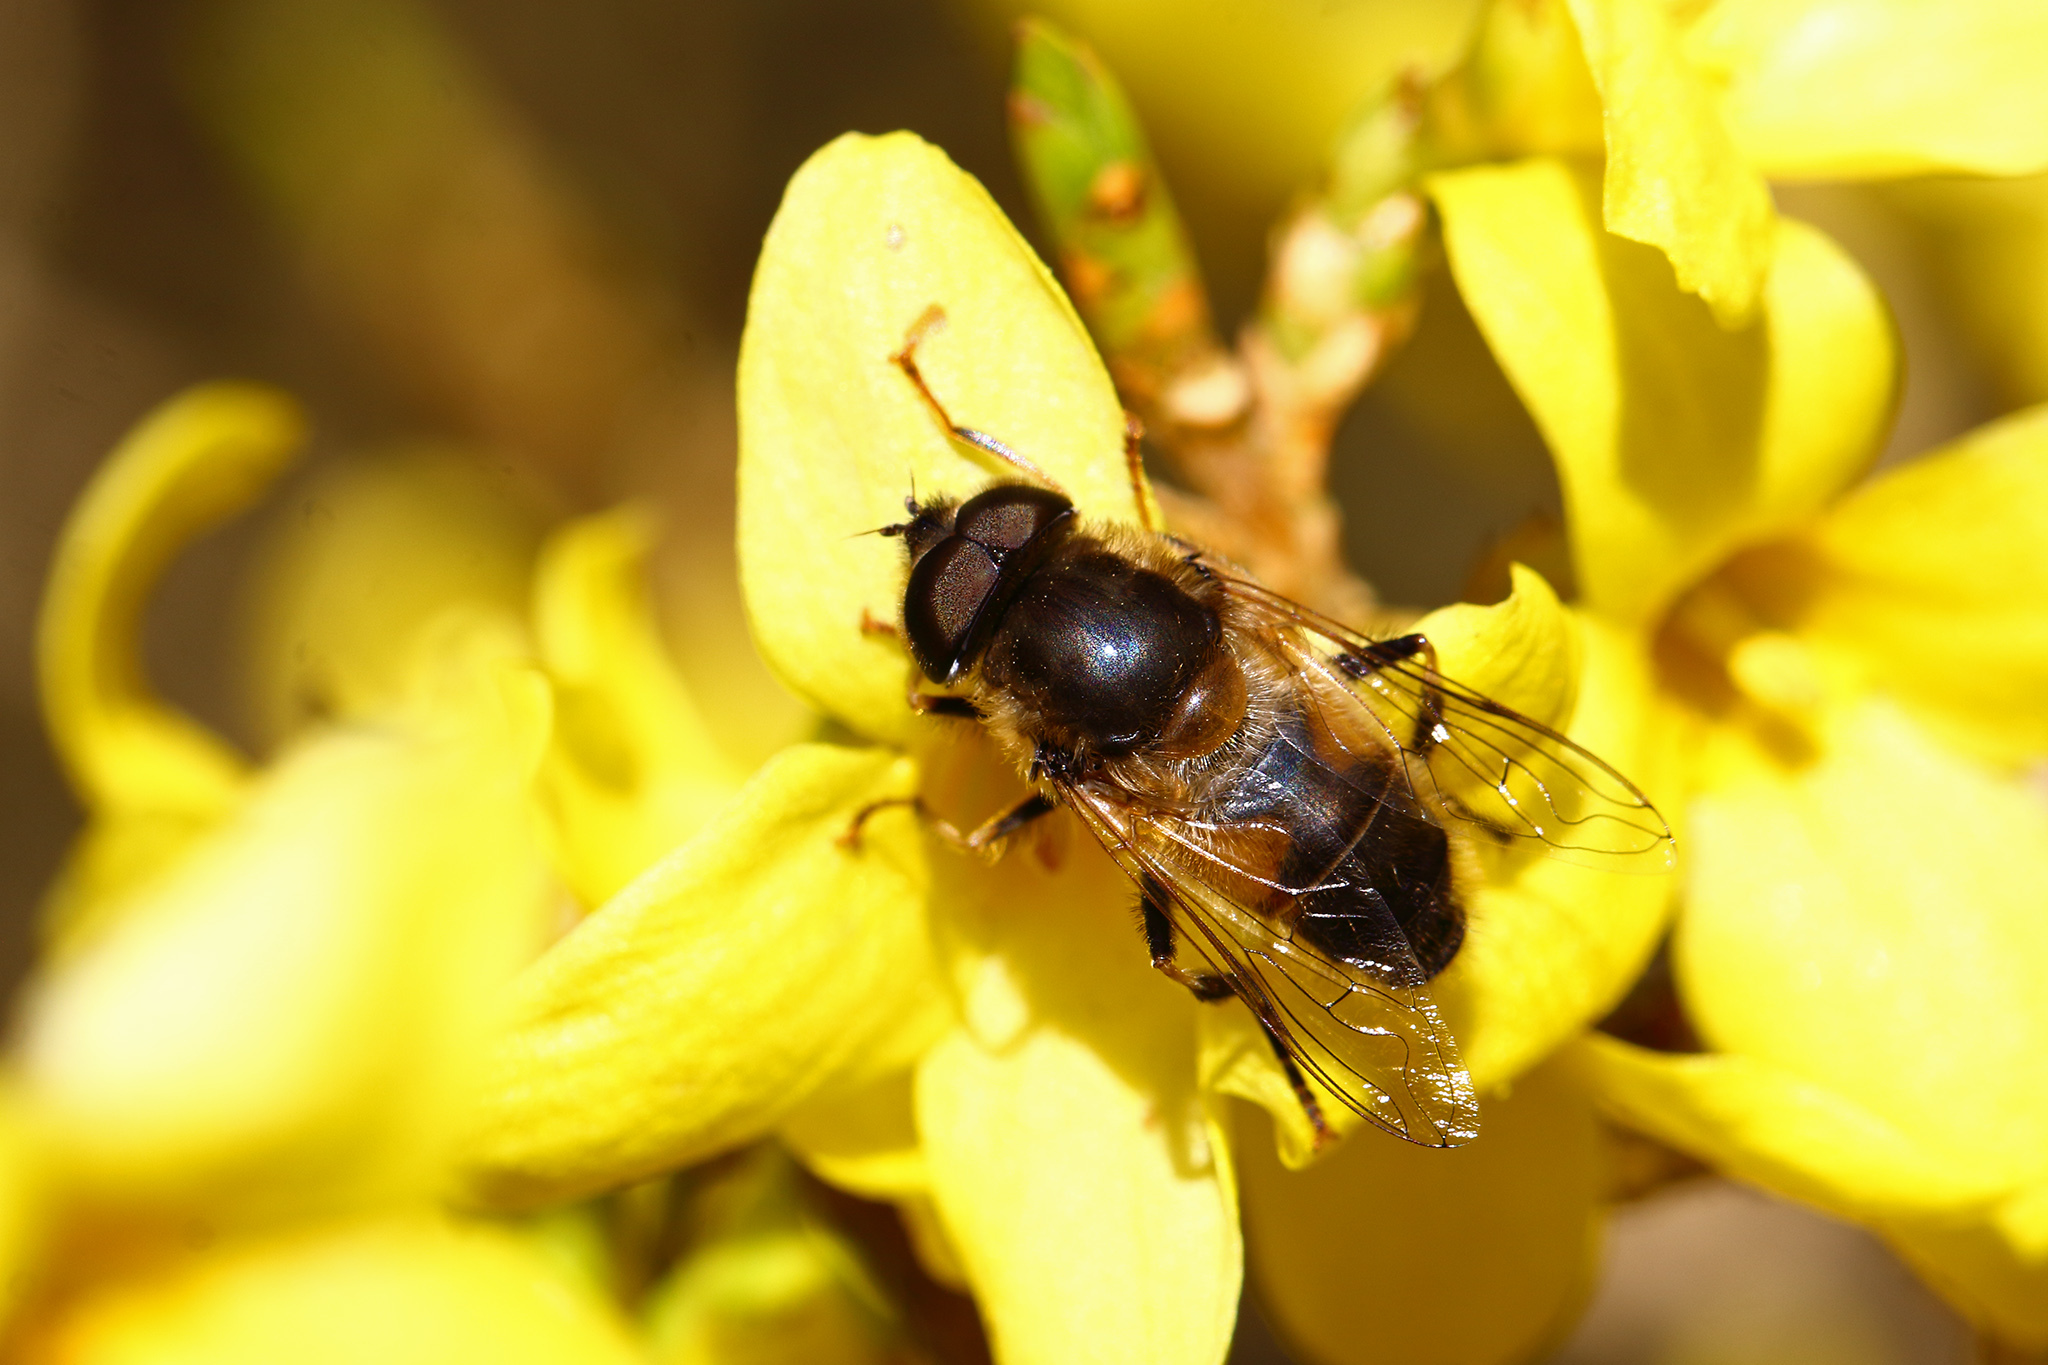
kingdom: Animalia
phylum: Arthropoda
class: Insecta
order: Diptera
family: Syrphidae
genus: Eristalis
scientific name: Eristalis pertinax
